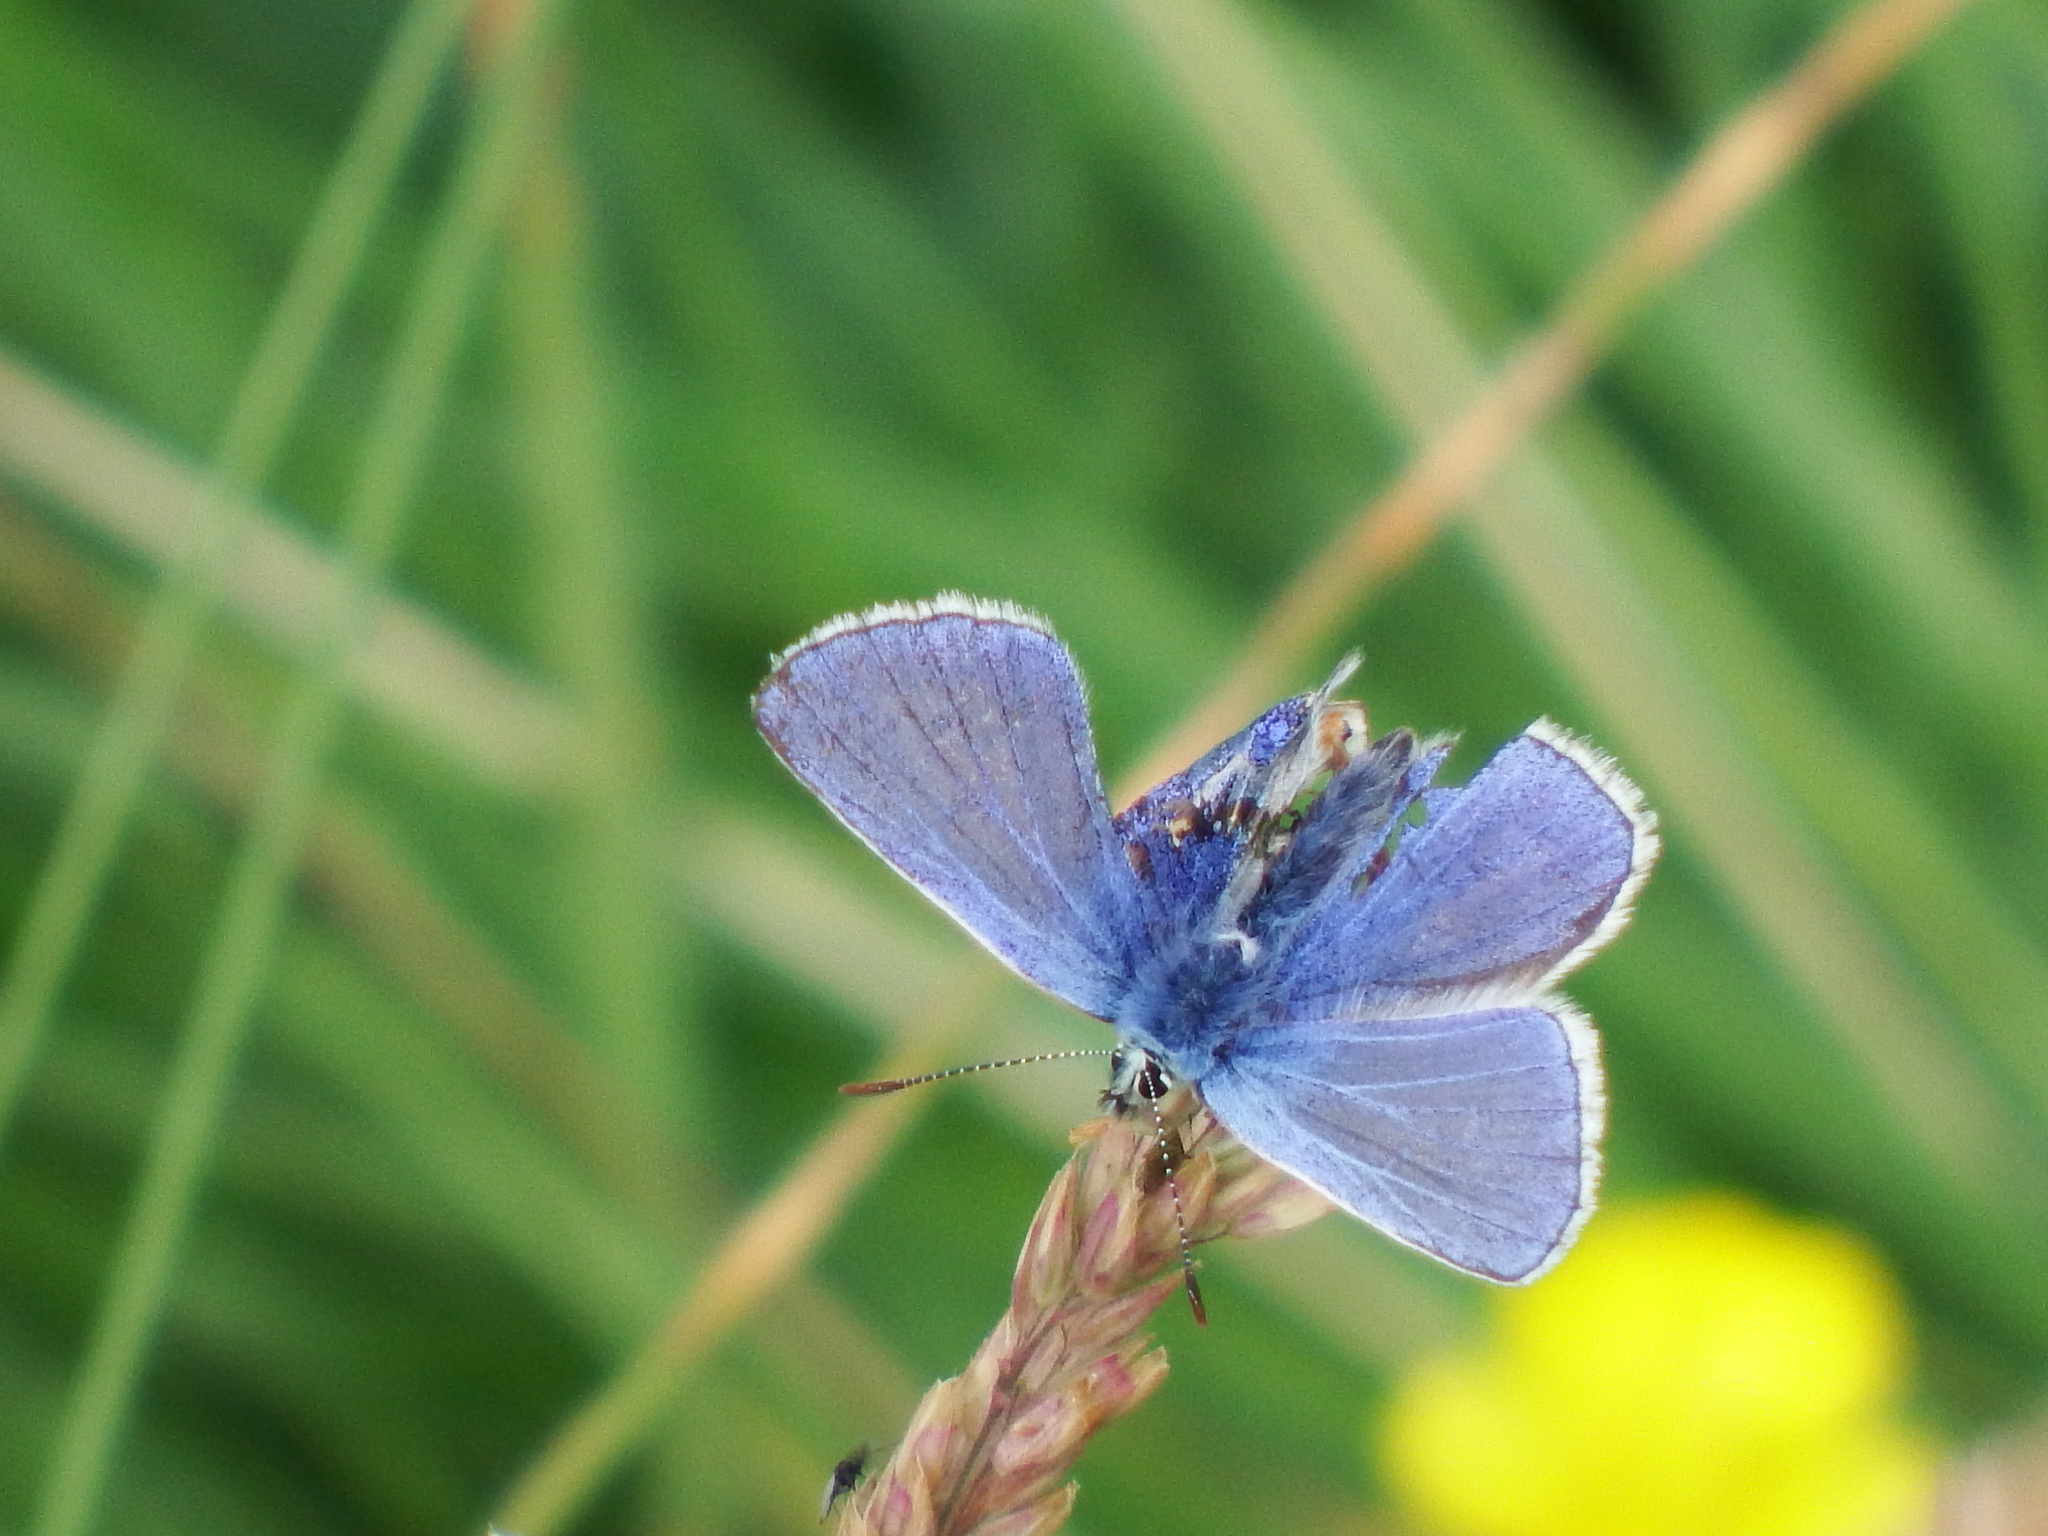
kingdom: Animalia
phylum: Arthropoda
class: Insecta
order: Lepidoptera
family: Lycaenidae
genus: Polyommatus
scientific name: Polyommatus icarus
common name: Common blue
